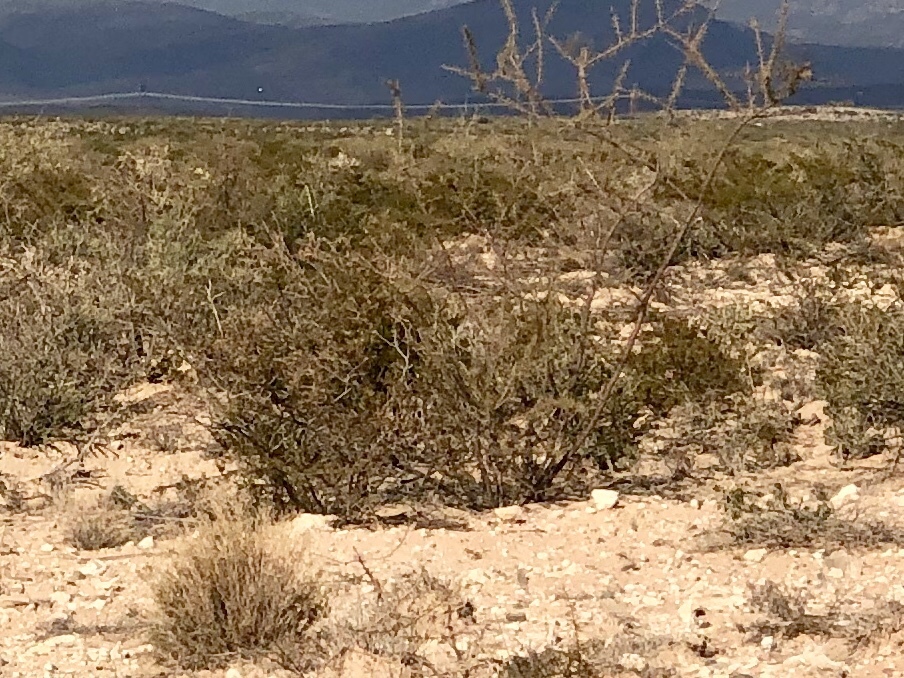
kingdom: Plantae
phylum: Tracheophyta
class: Magnoliopsida
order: Zygophyllales
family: Zygophyllaceae
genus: Larrea
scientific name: Larrea tridentata
